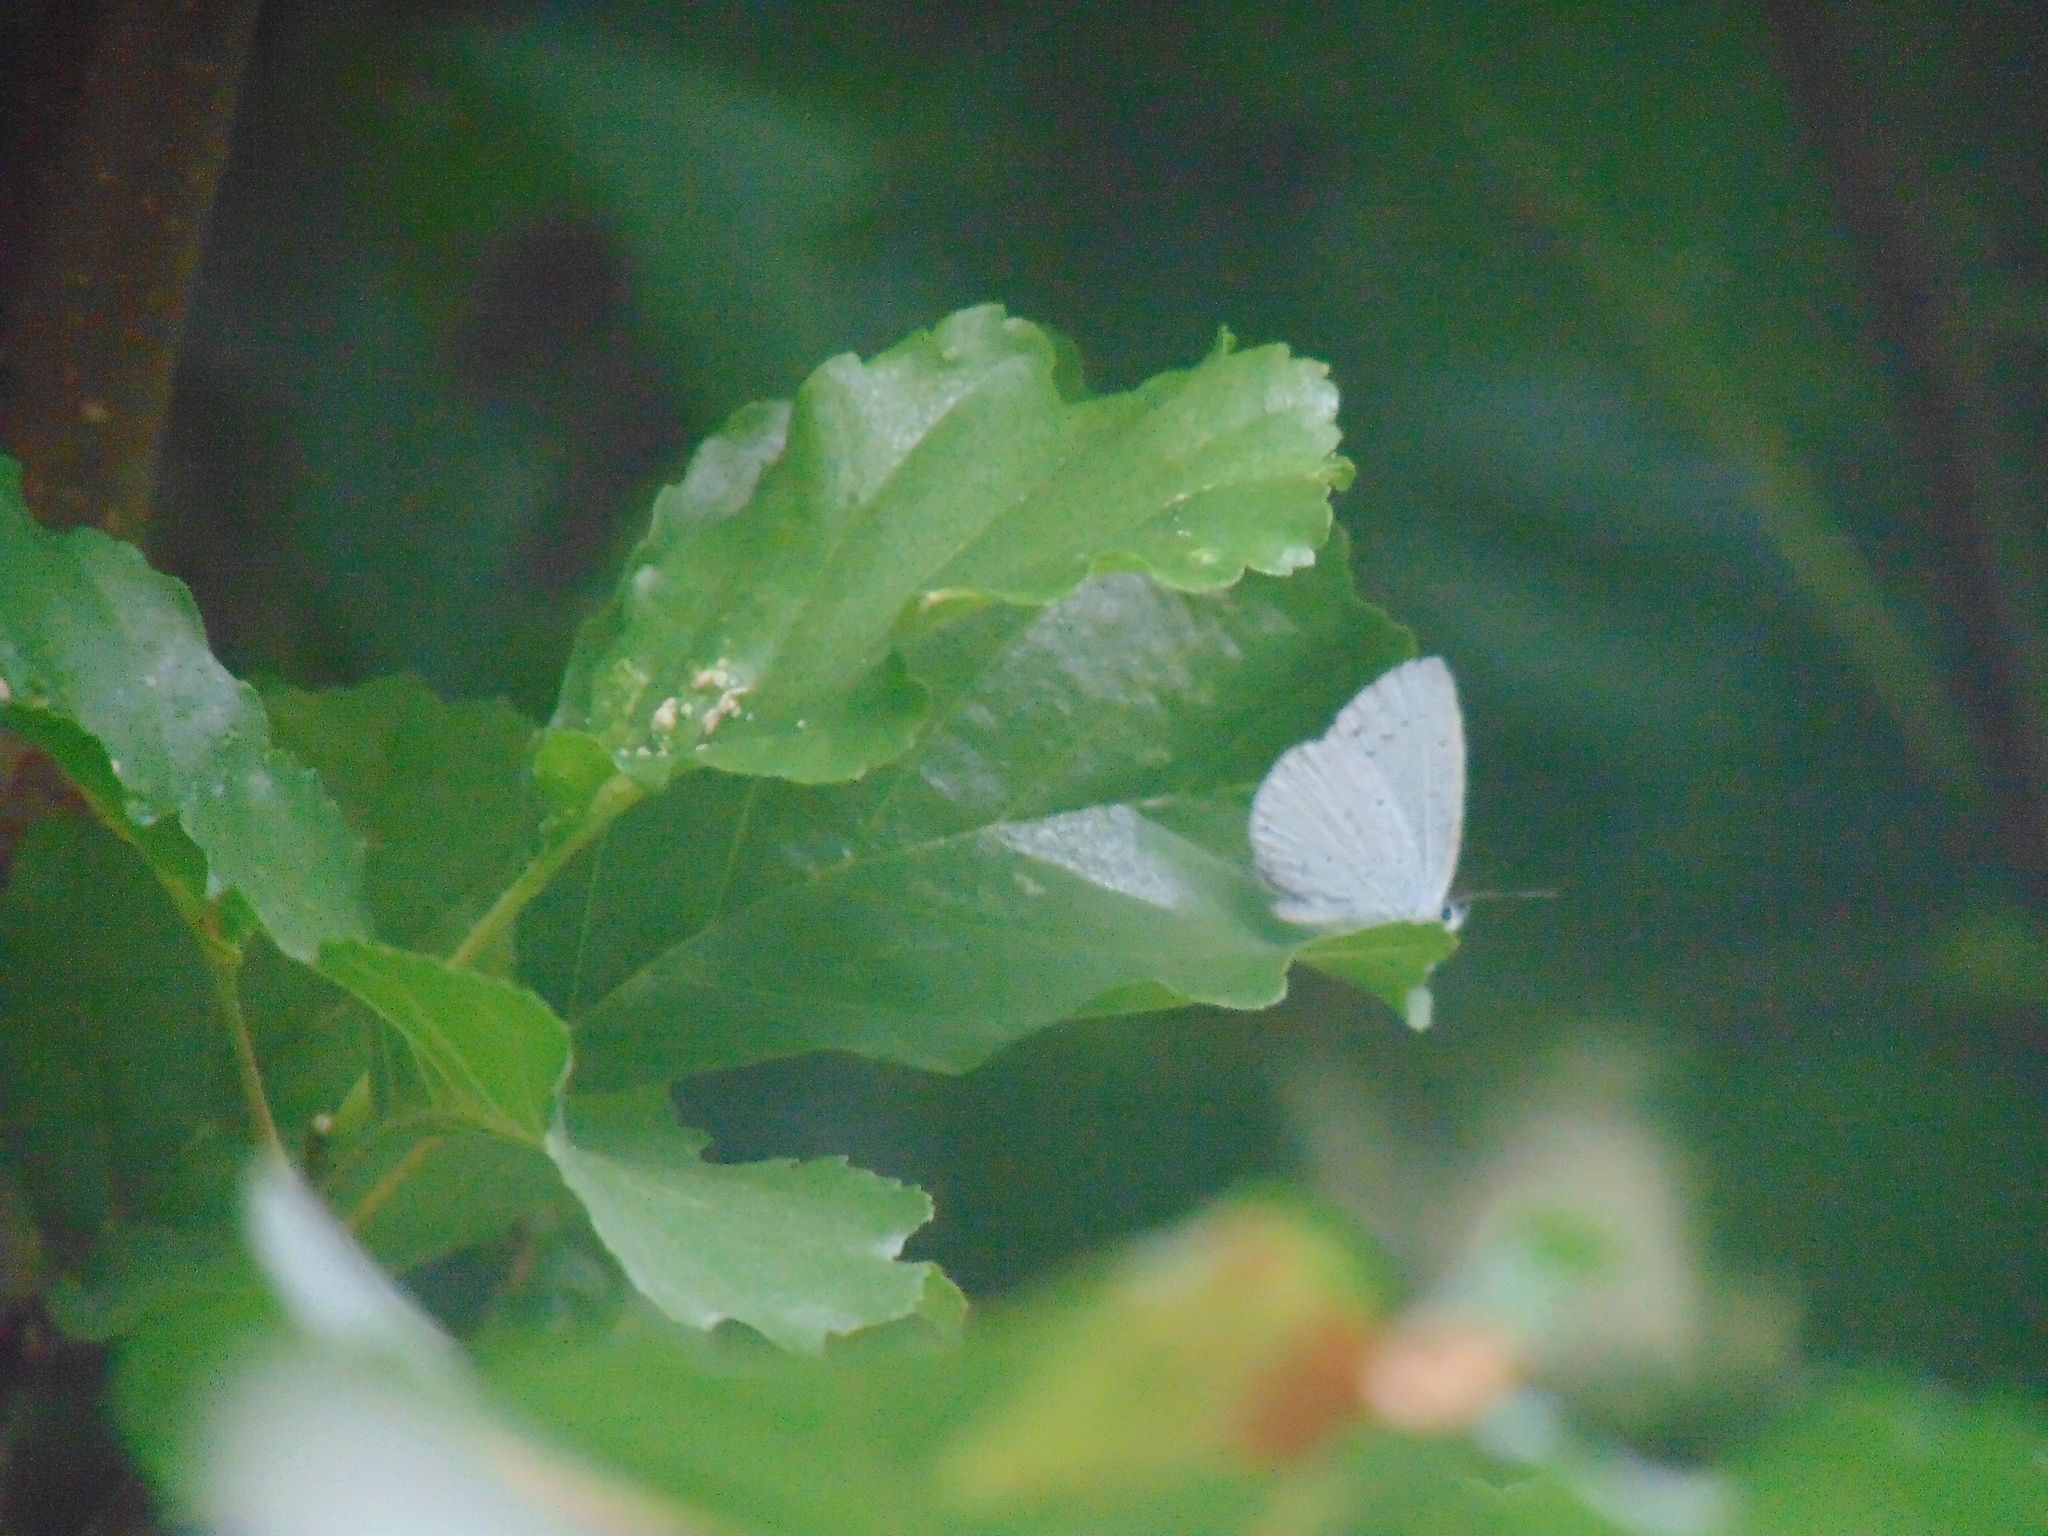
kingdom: Animalia
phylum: Arthropoda
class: Insecta
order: Lepidoptera
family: Lycaenidae
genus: Celastrina
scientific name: Celastrina argiolus
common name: Holly blue
